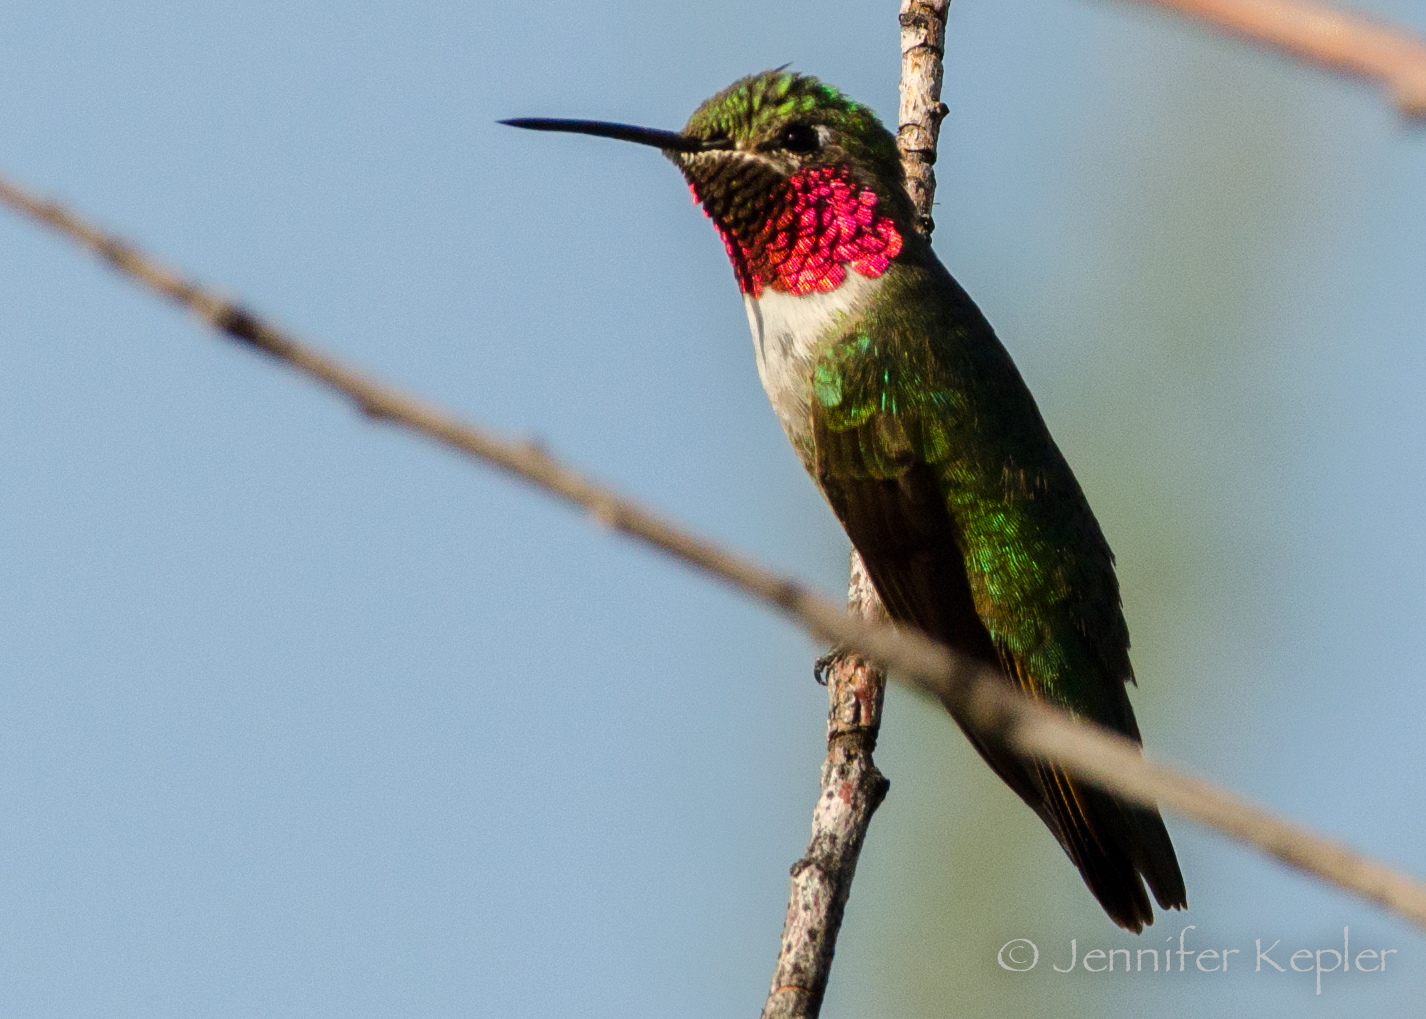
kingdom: Animalia
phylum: Chordata
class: Aves
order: Apodiformes
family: Trochilidae
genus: Selasphorus
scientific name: Selasphorus platycercus
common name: Broad-tailed hummingbird
